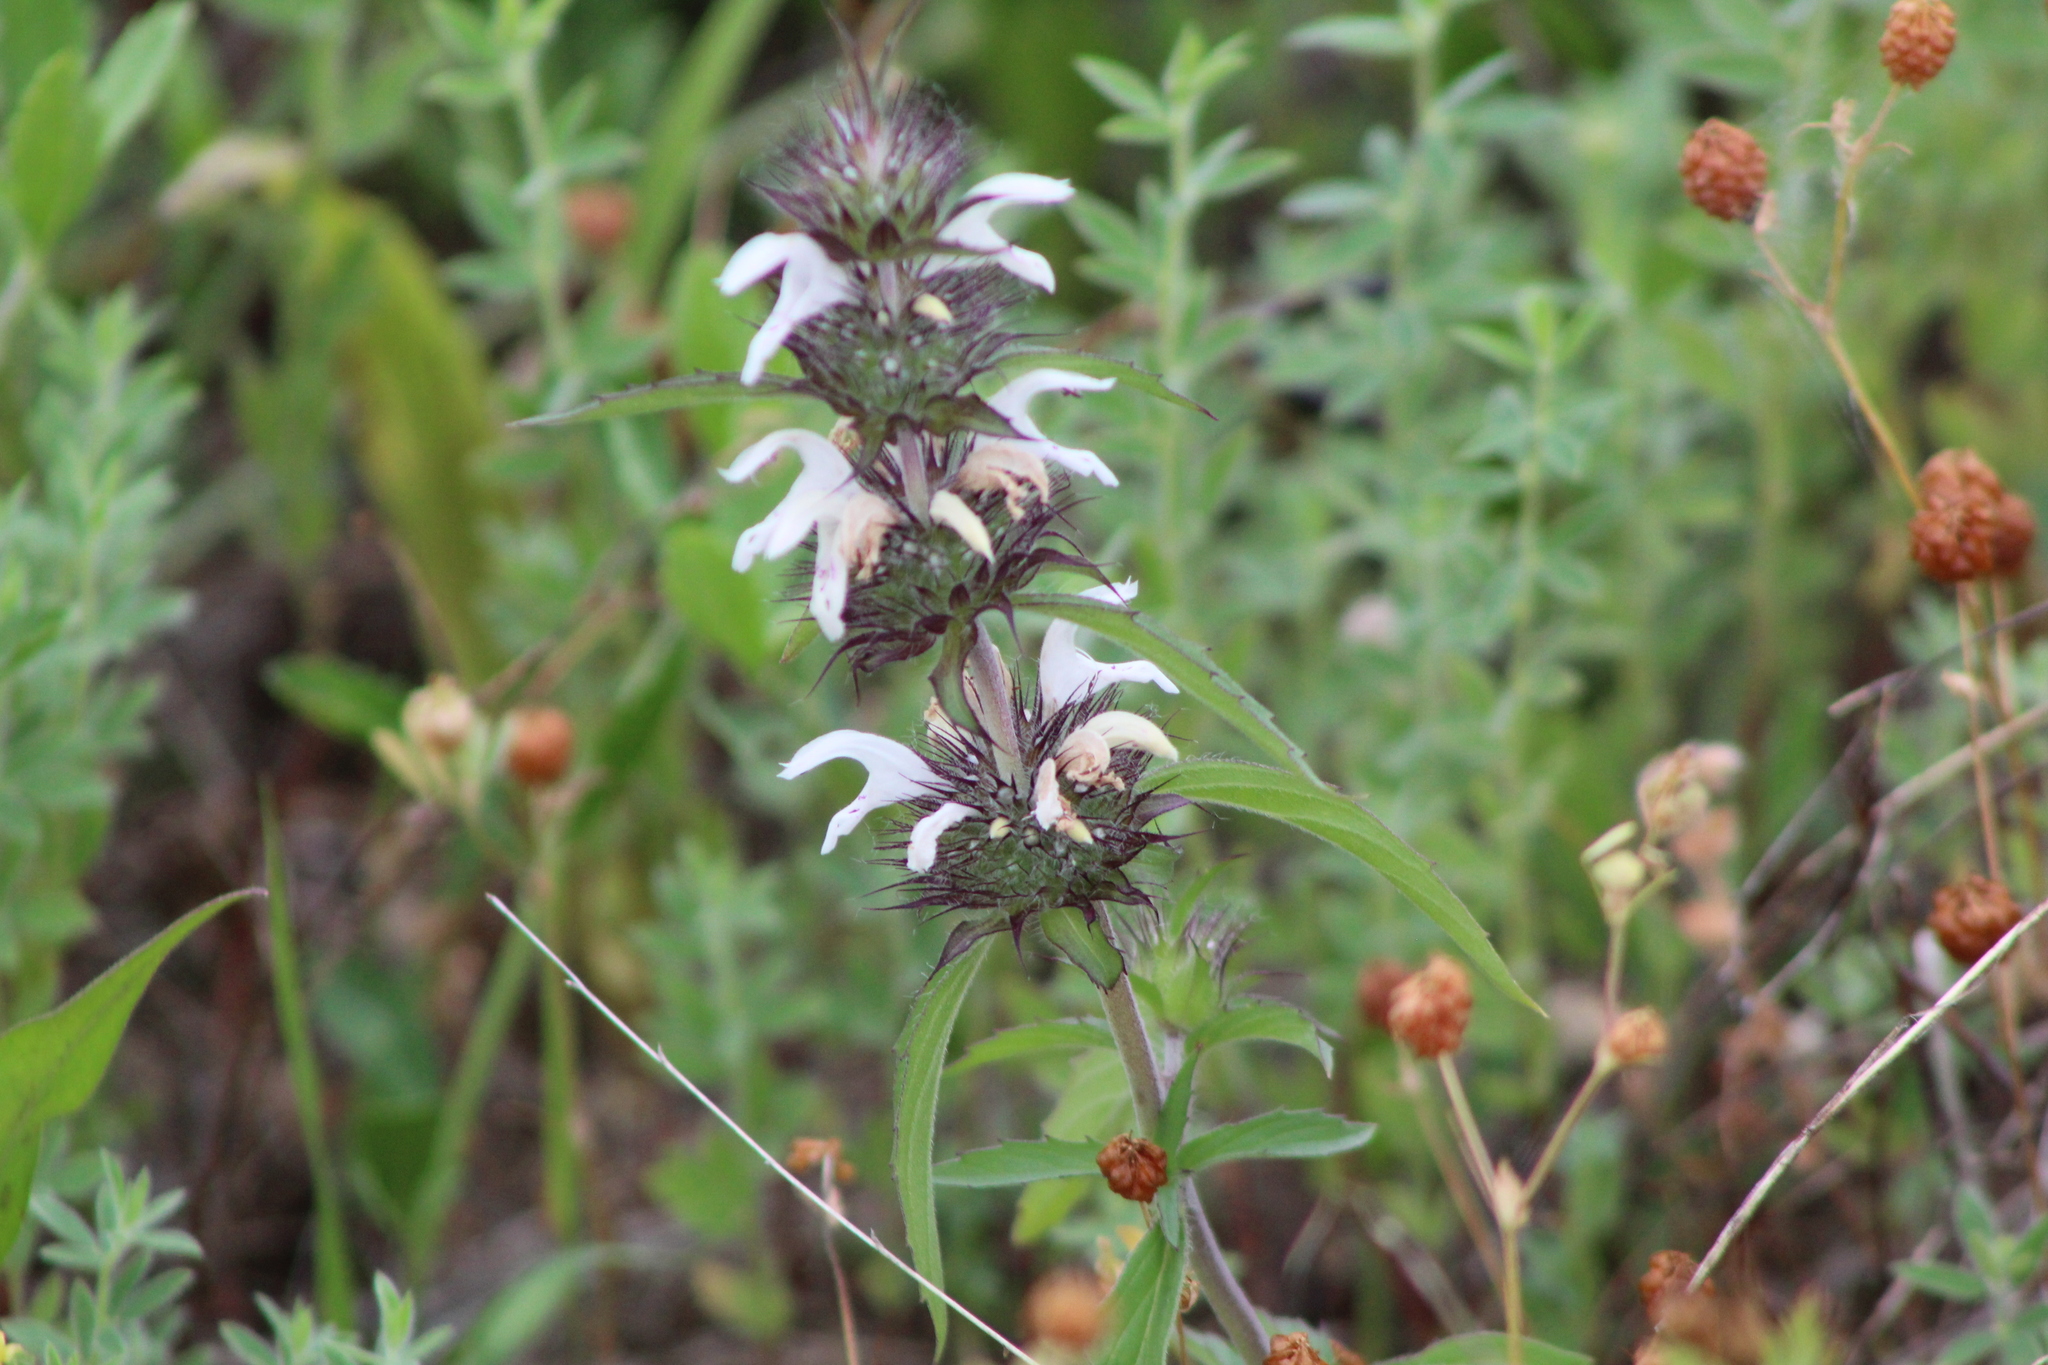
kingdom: Plantae
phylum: Tracheophyta
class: Magnoliopsida
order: Lamiales
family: Lamiaceae
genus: Monarda
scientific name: Monarda clinopodioides
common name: Basil beebalm
